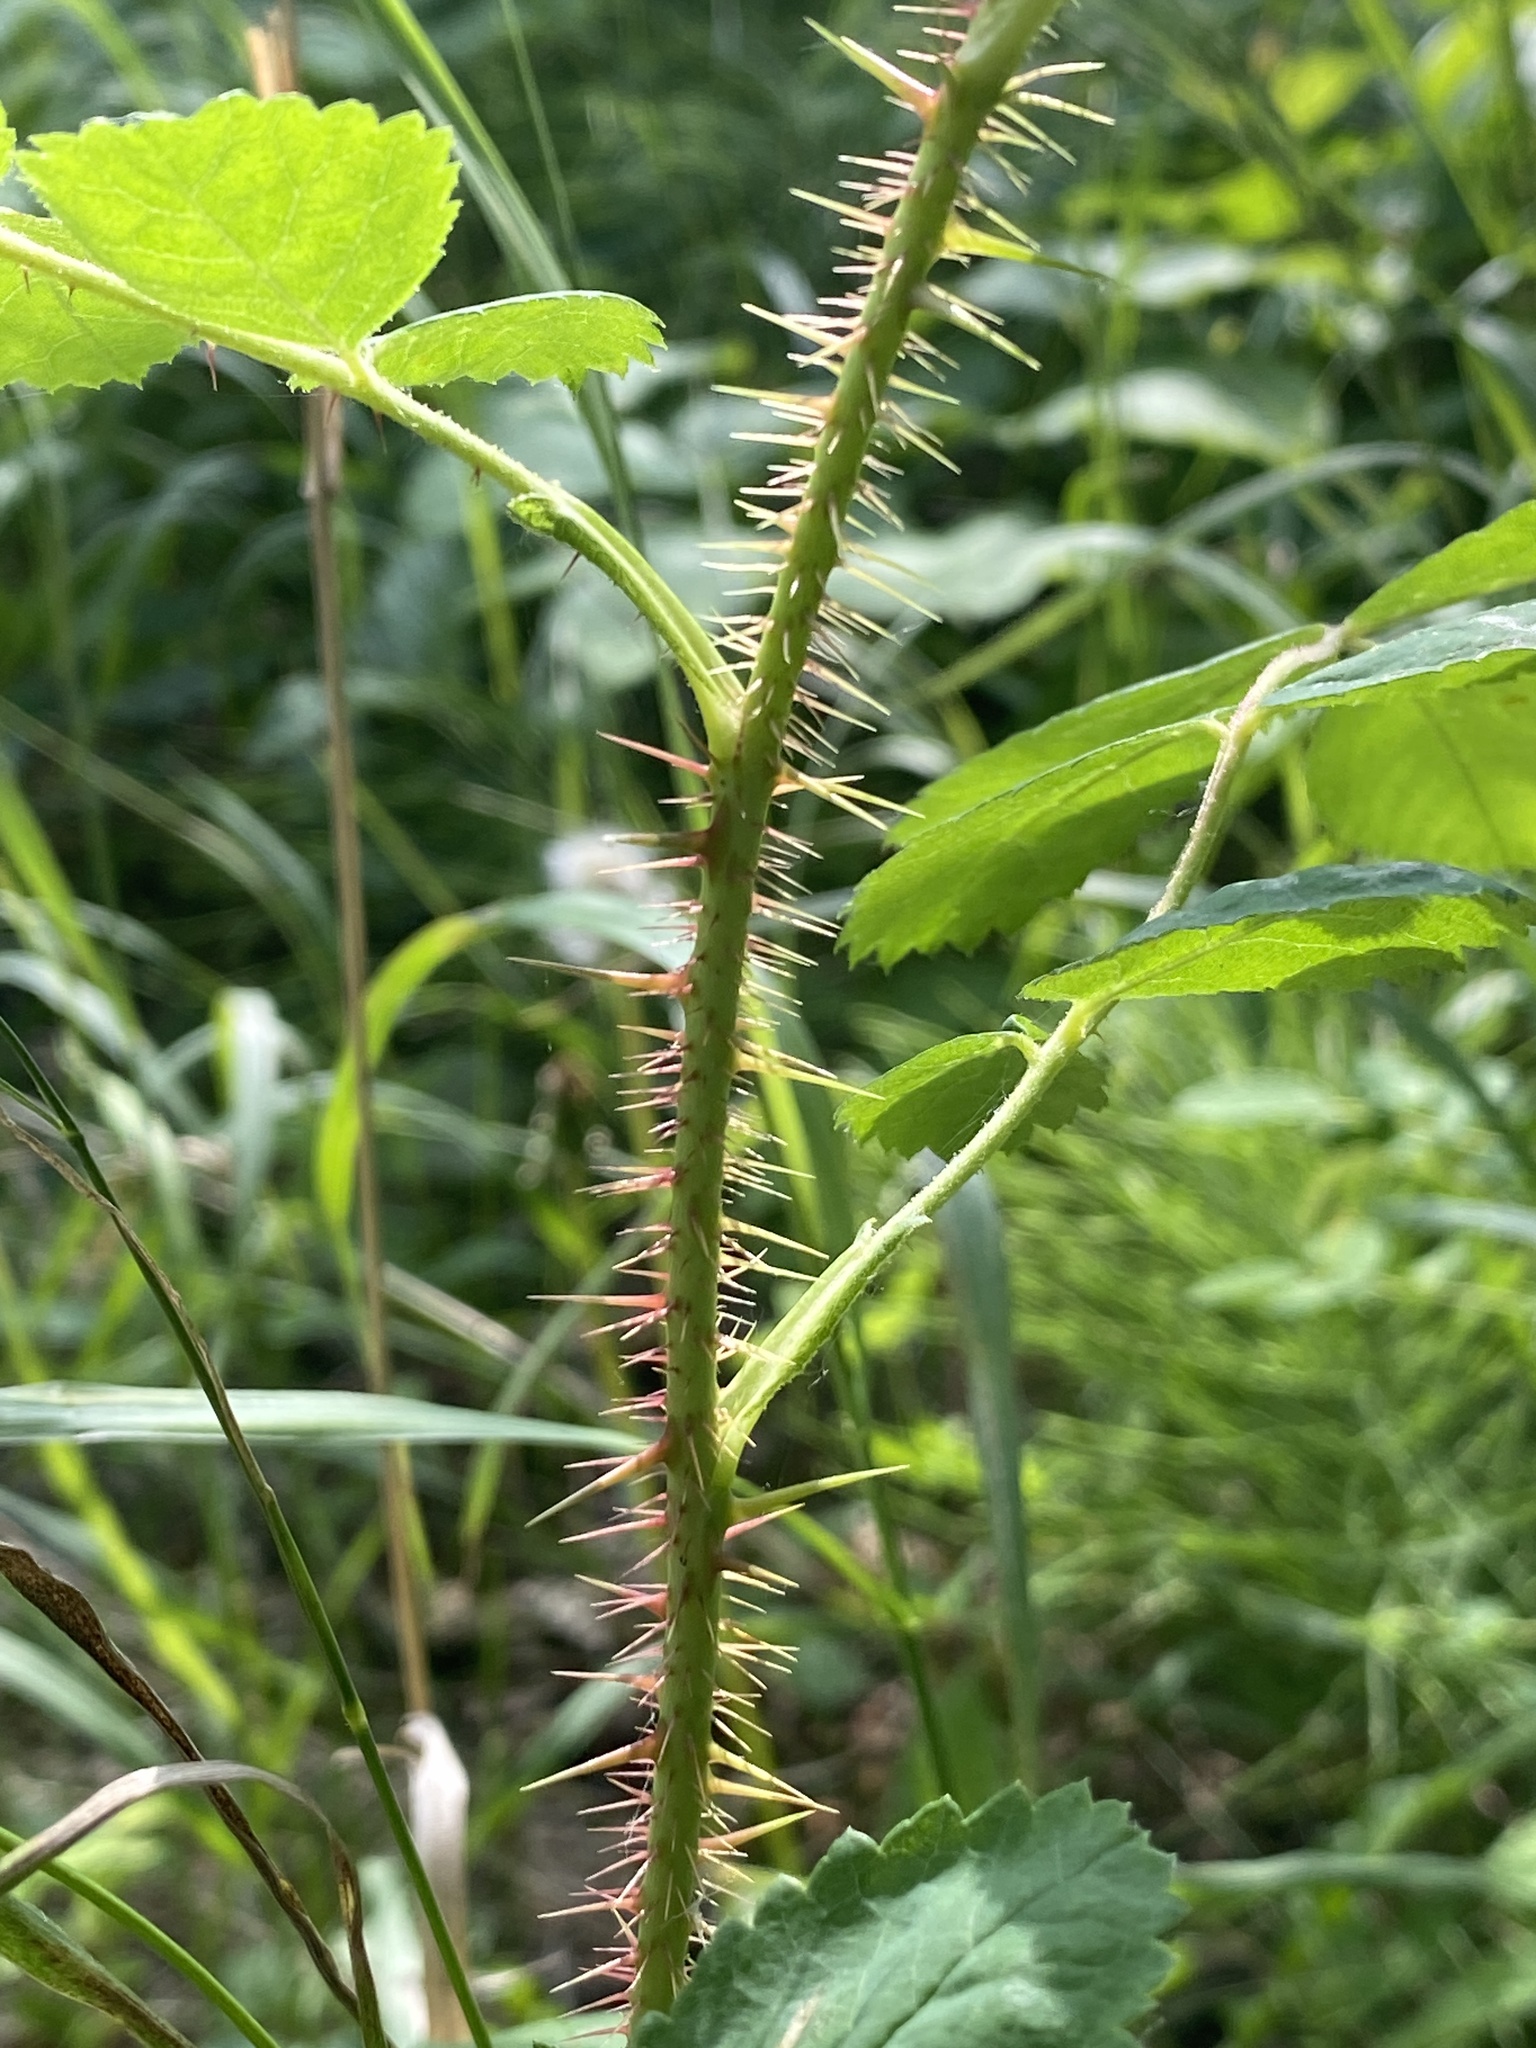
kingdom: Plantae
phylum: Tracheophyta
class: Magnoliopsida
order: Rosales
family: Rosaceae
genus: Rosa
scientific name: Rosa acicularis
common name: Prickly rose
